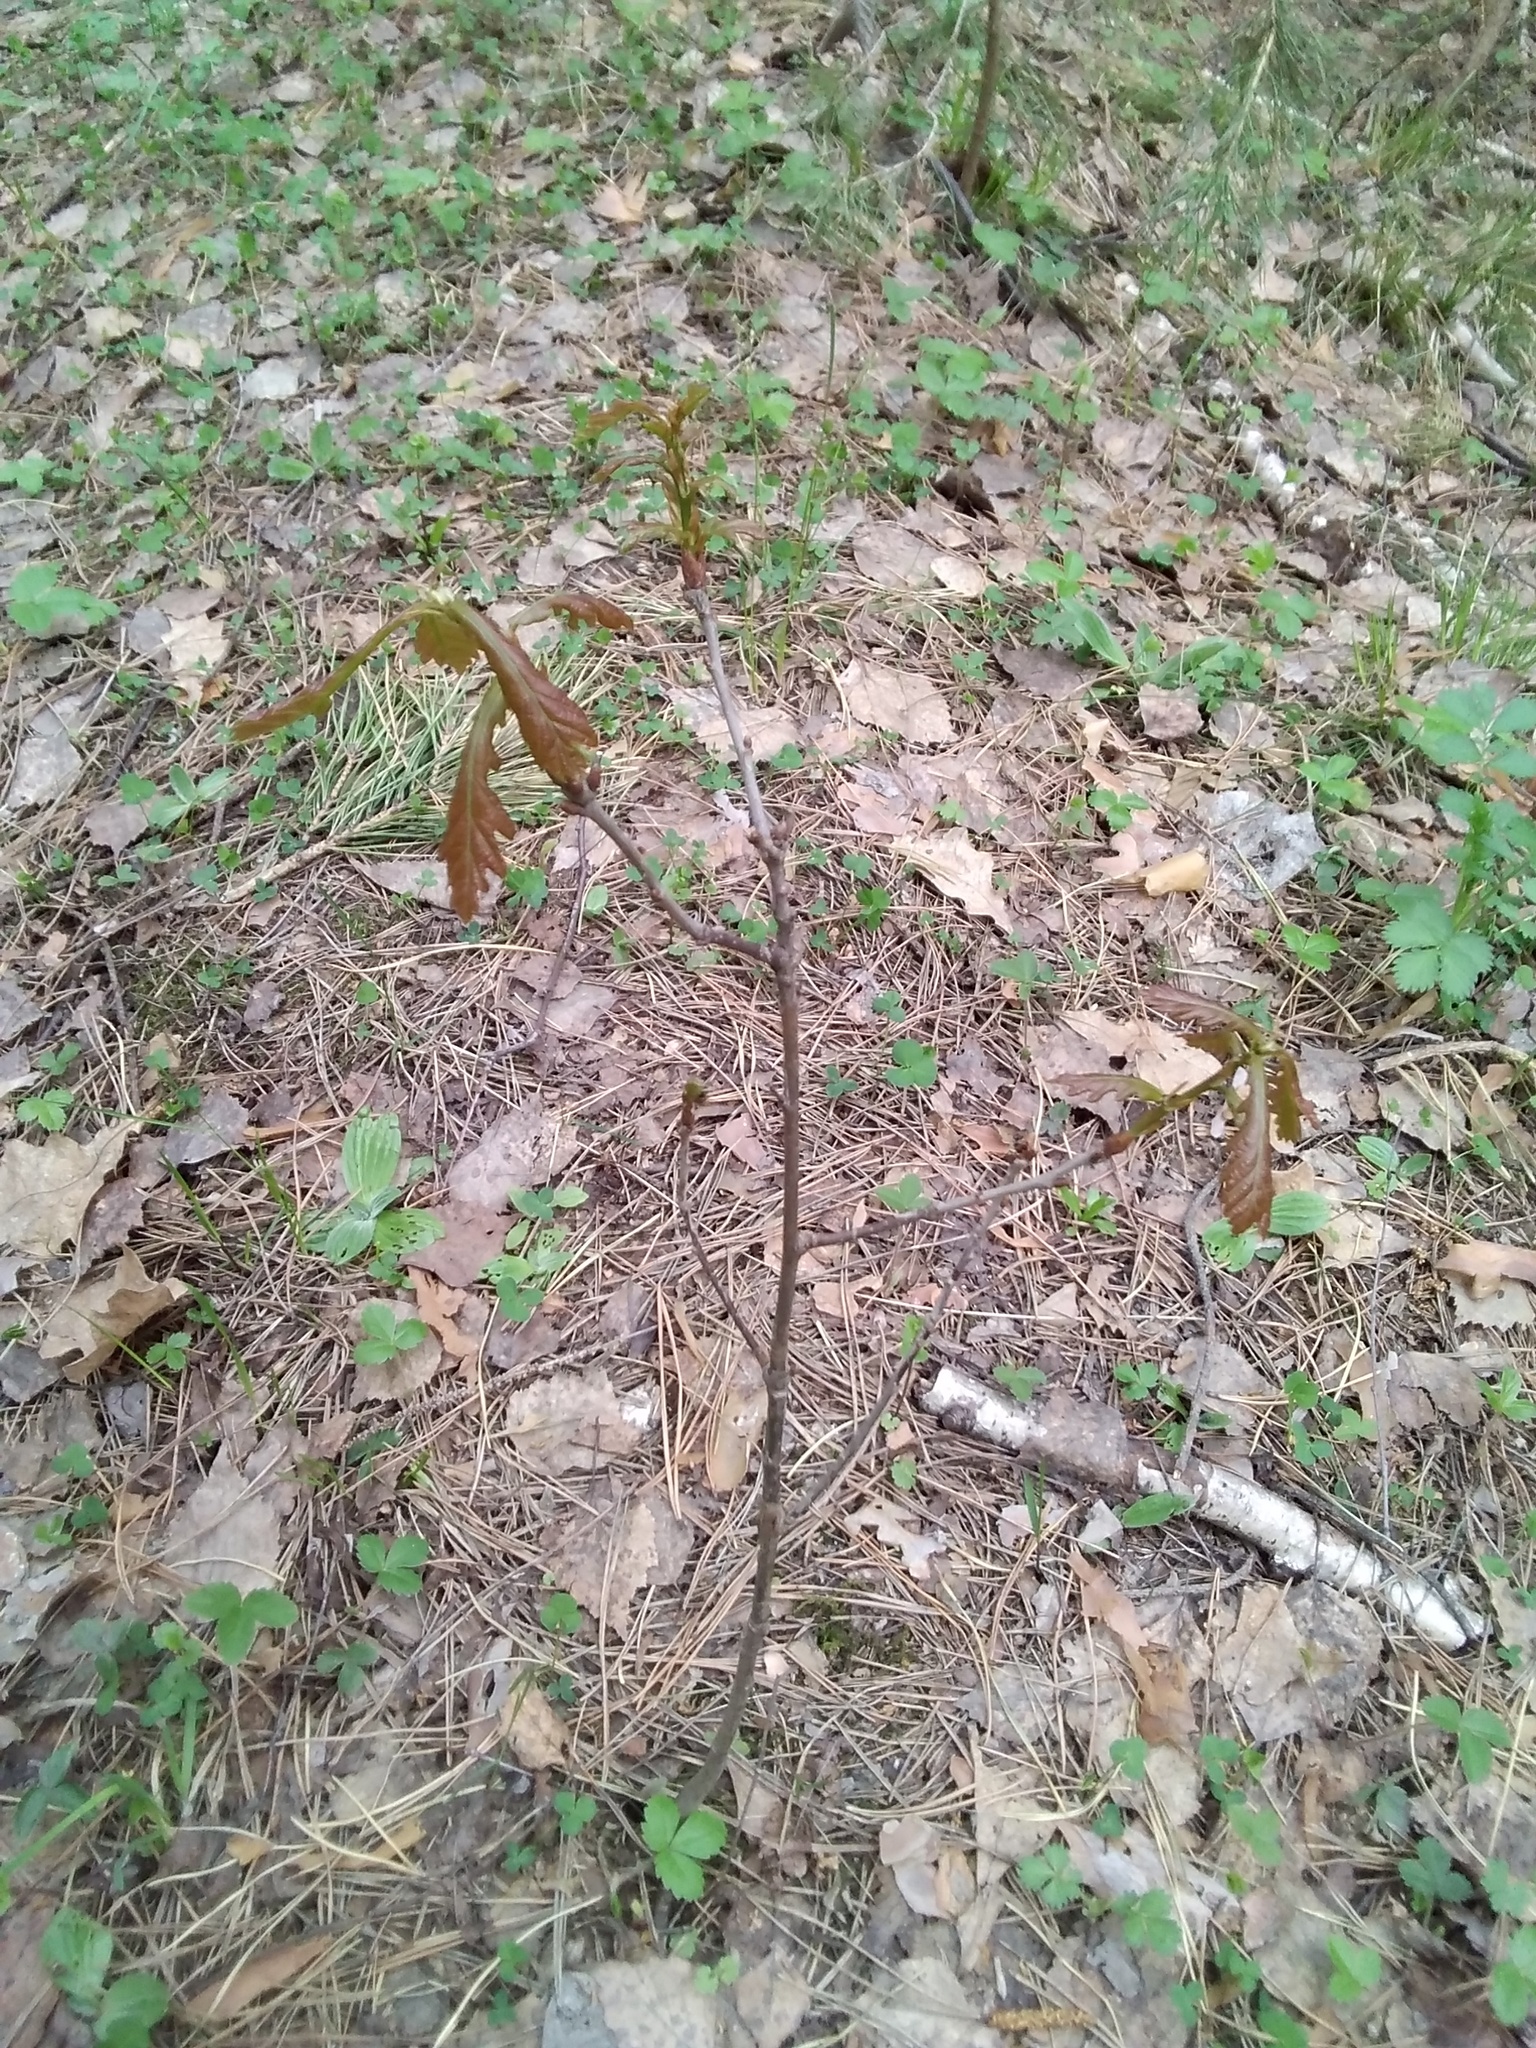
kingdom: Plantae
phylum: Tracheophyta
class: Magnoliopsida
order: Fagales
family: Fagaceae
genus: Quercus
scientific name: Quercus robur
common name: Pedunculate oak
